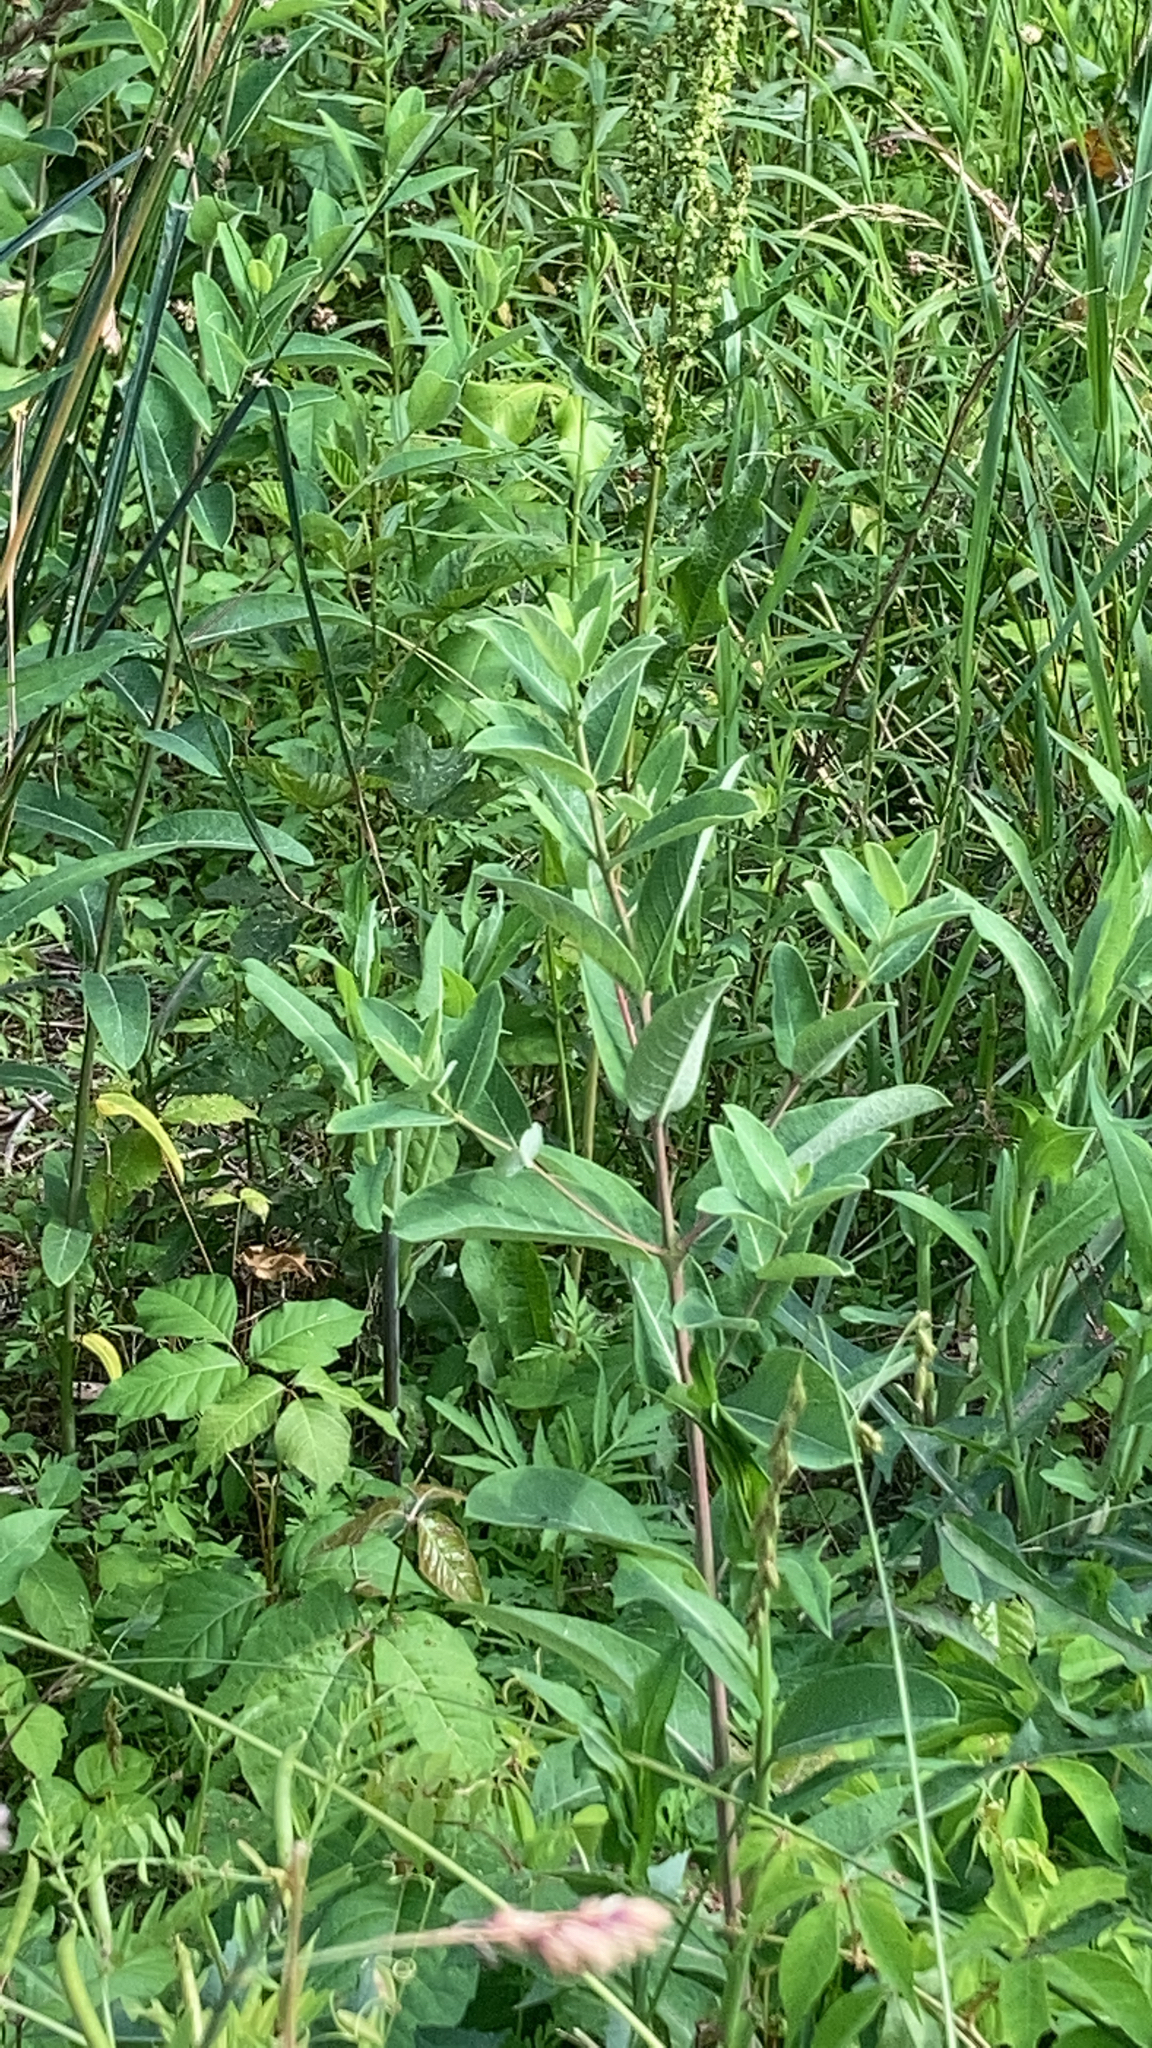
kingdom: Plantae
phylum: Tracheophyta
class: Magnoliopsida
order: Gentianales
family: Apocynaceae
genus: Apocynum
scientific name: Apocynum cannabinum
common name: Hemp dogbane
